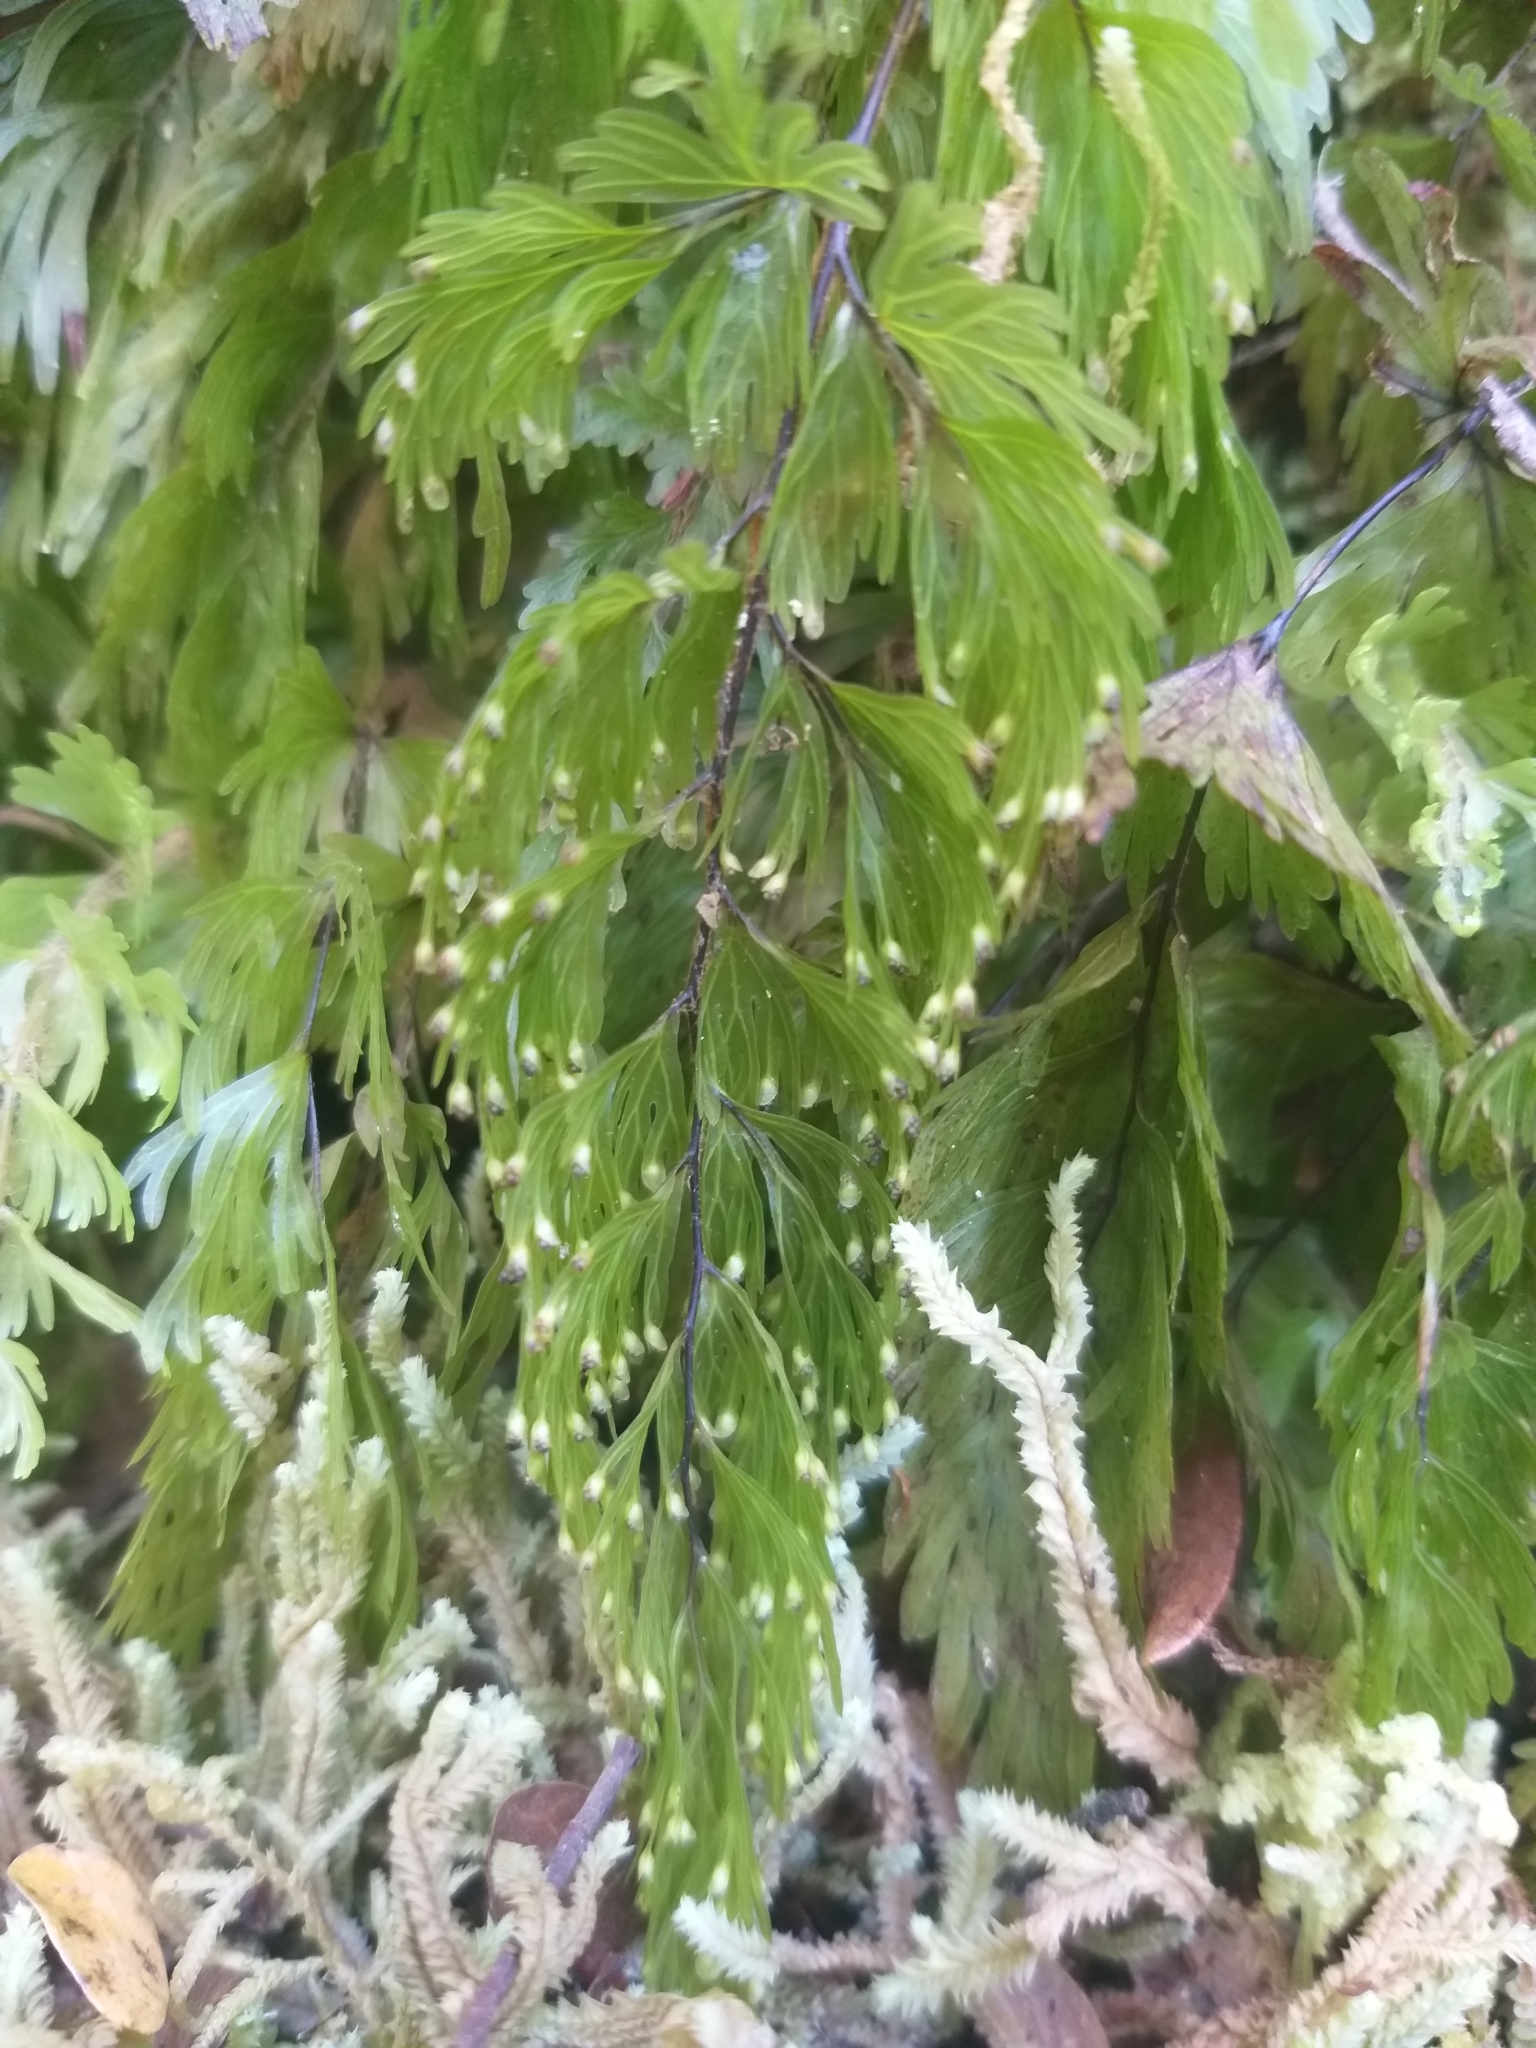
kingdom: Plantae
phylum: Tracheophyta
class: Polypodiopsida
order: Hymenophyllales
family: Hymenophyllaceae
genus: Hymenophyllum
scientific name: Hymenophyllum flabellatum
